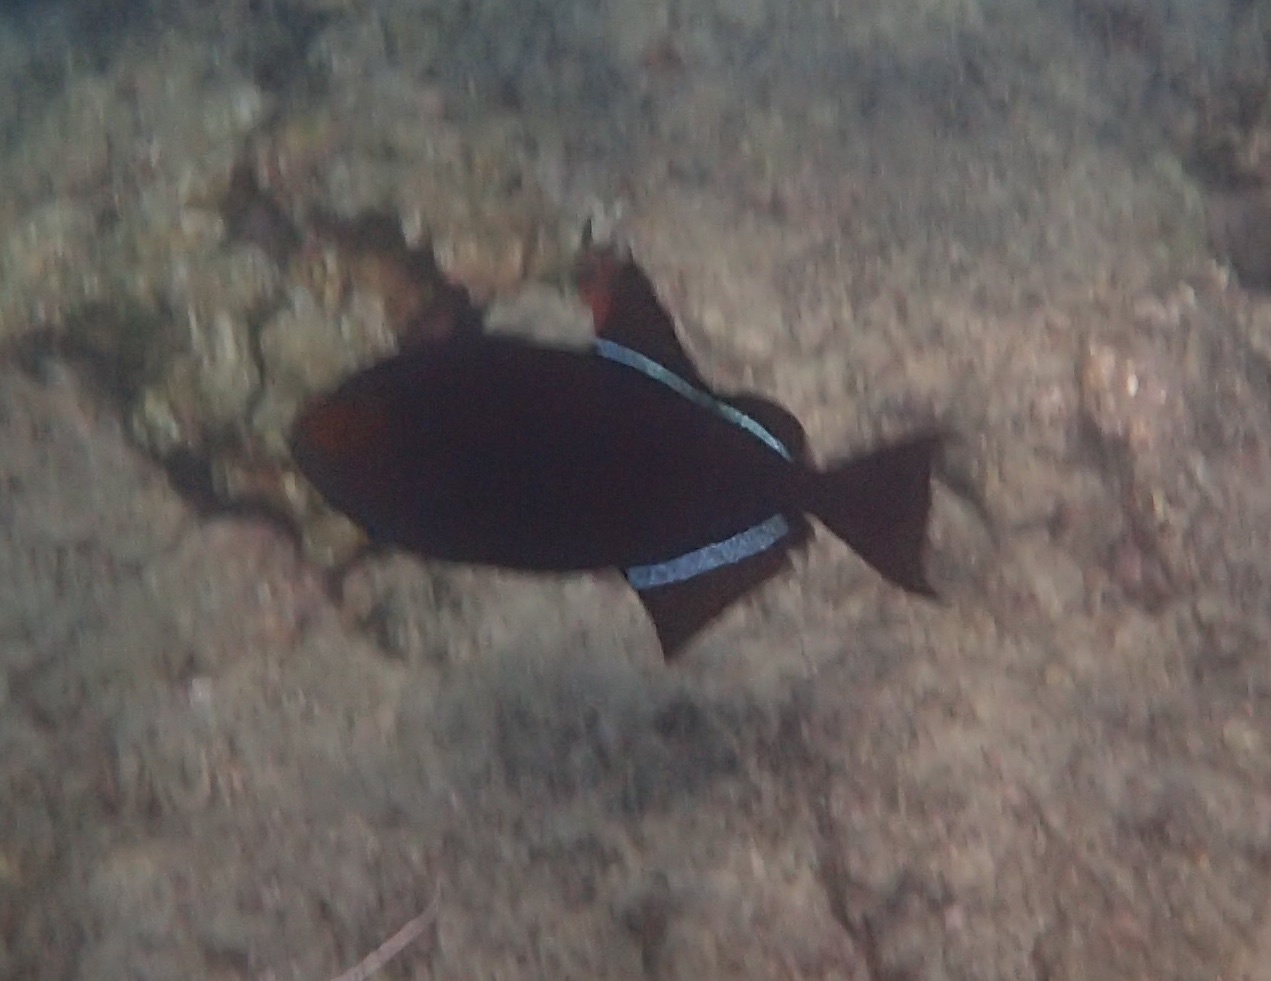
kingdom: Animalia
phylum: Chordata
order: Tetraodontiformes
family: Balistidae
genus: Melichthys
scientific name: Melichthys niger
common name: Black durgon
